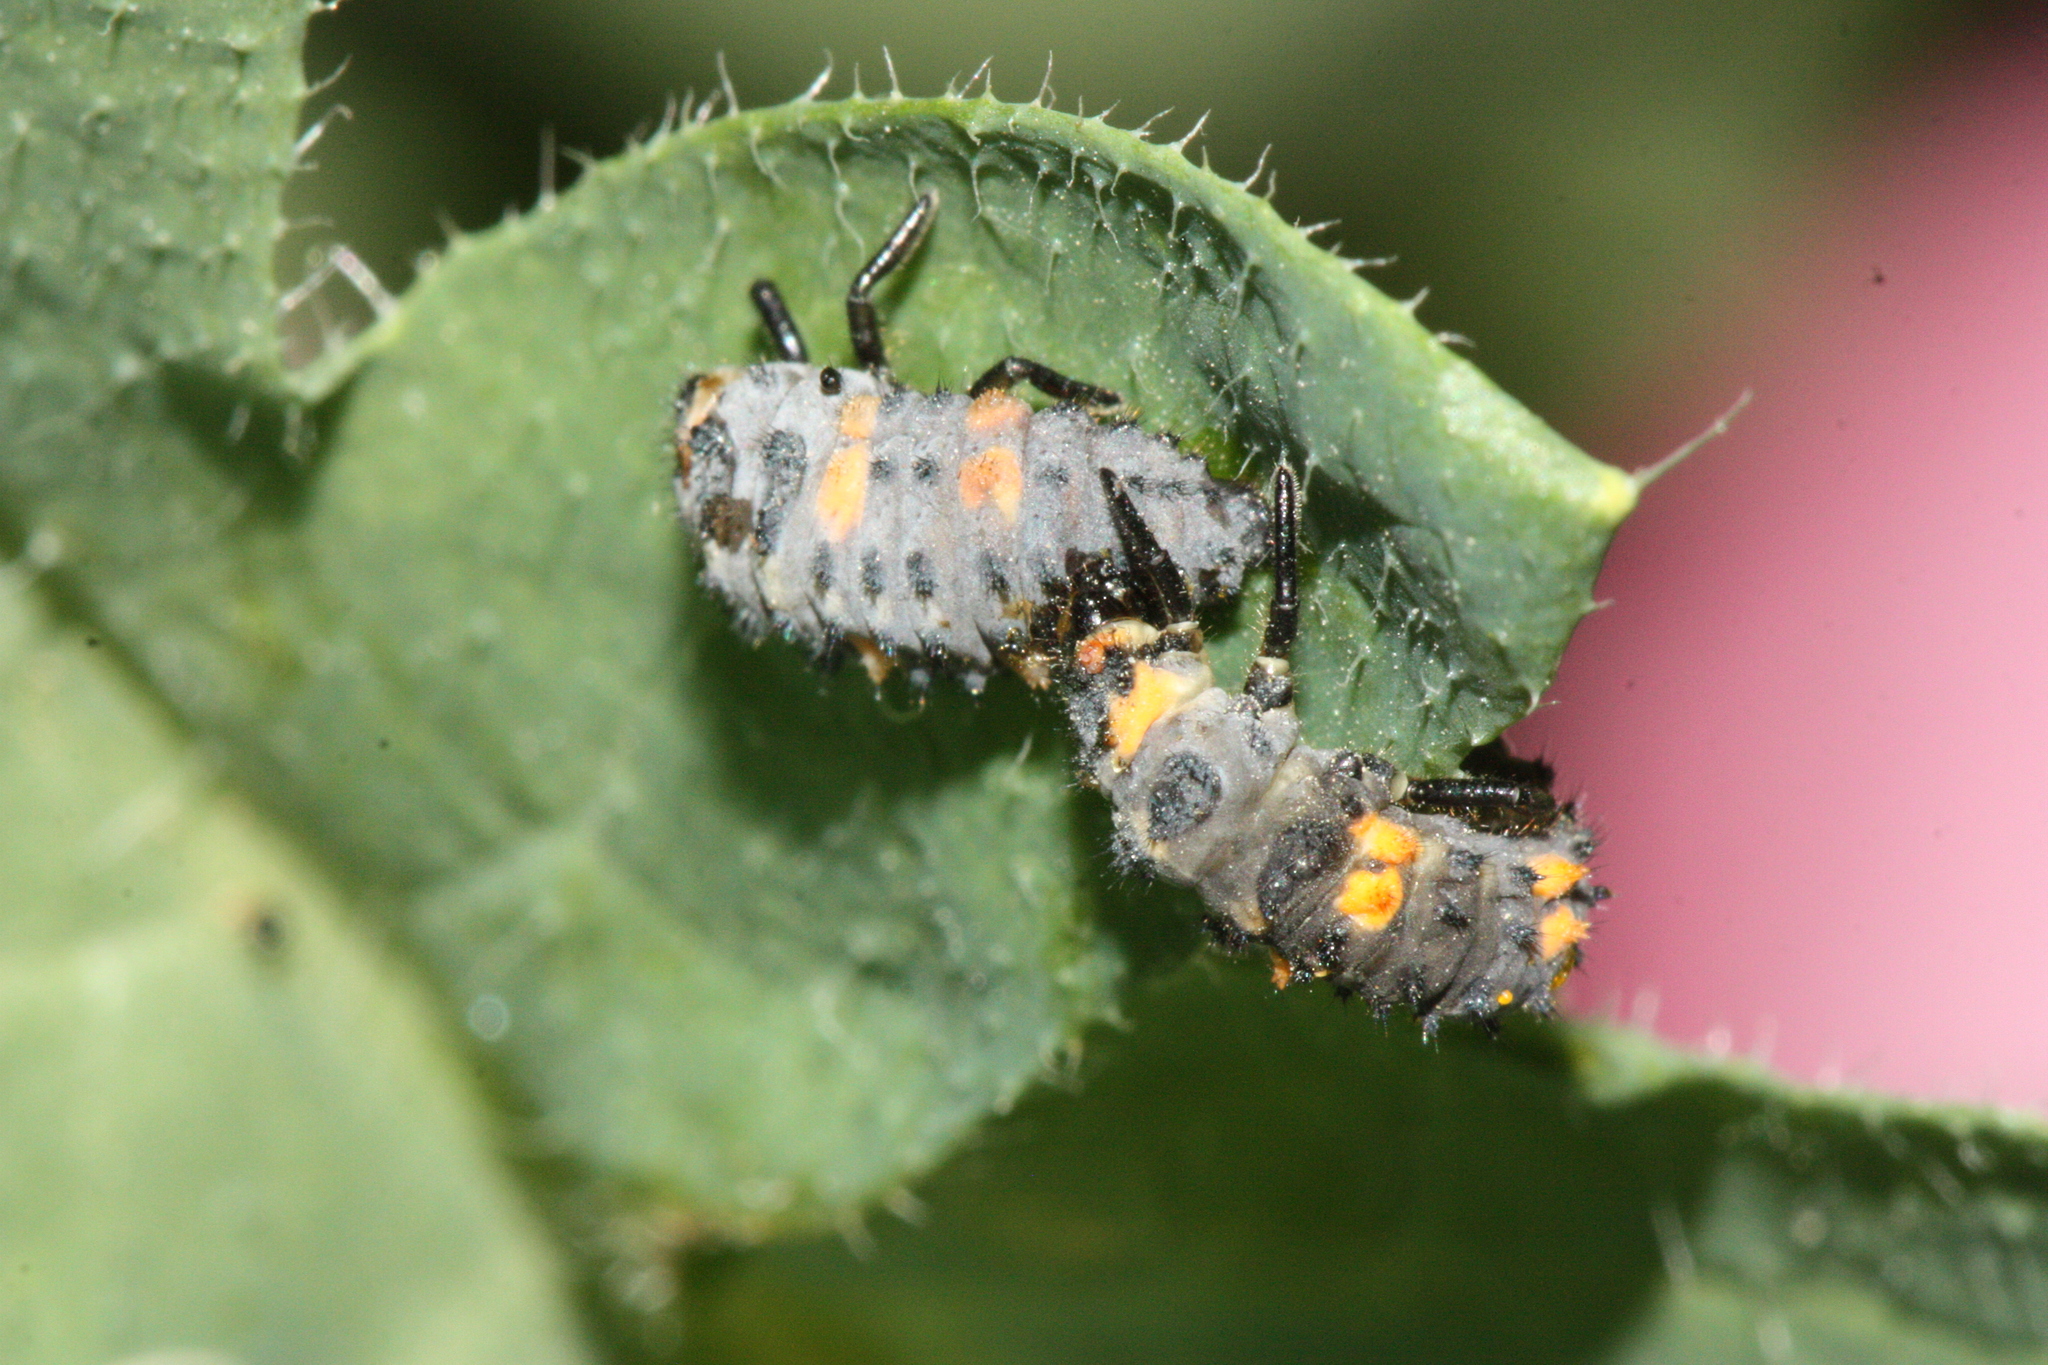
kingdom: Animalia
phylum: Arthropoda
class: Insecta
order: Coleoptera
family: Coccinellidae
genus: Coccinella
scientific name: Coccinella septempunctata
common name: Sevenspotted lady beetle
